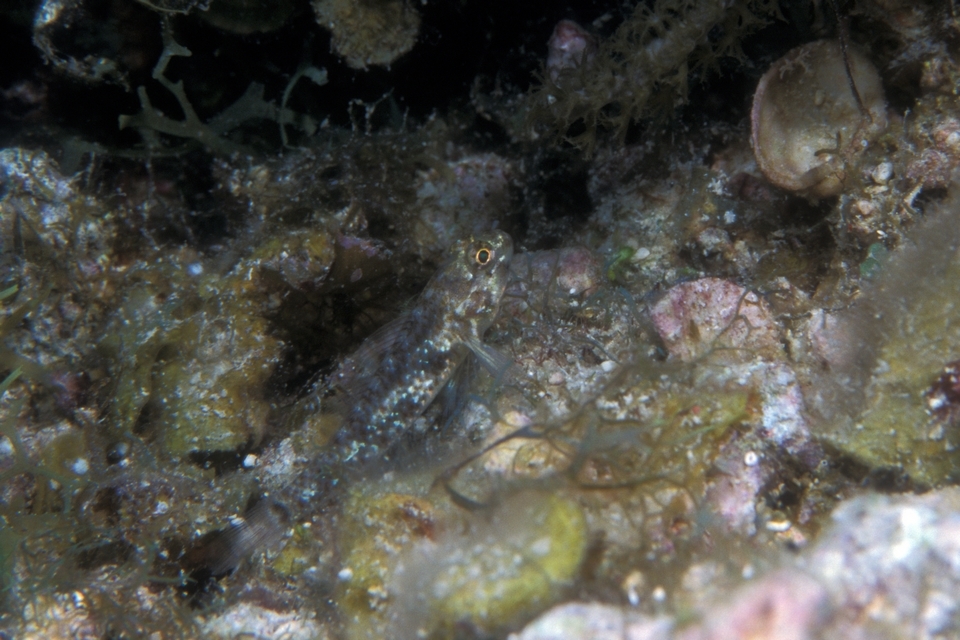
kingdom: Animalia
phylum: Chordata
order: Perciformes
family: Gobiidae
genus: Coryphopterus
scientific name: Coryphopterus dicrus
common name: Colon goby
